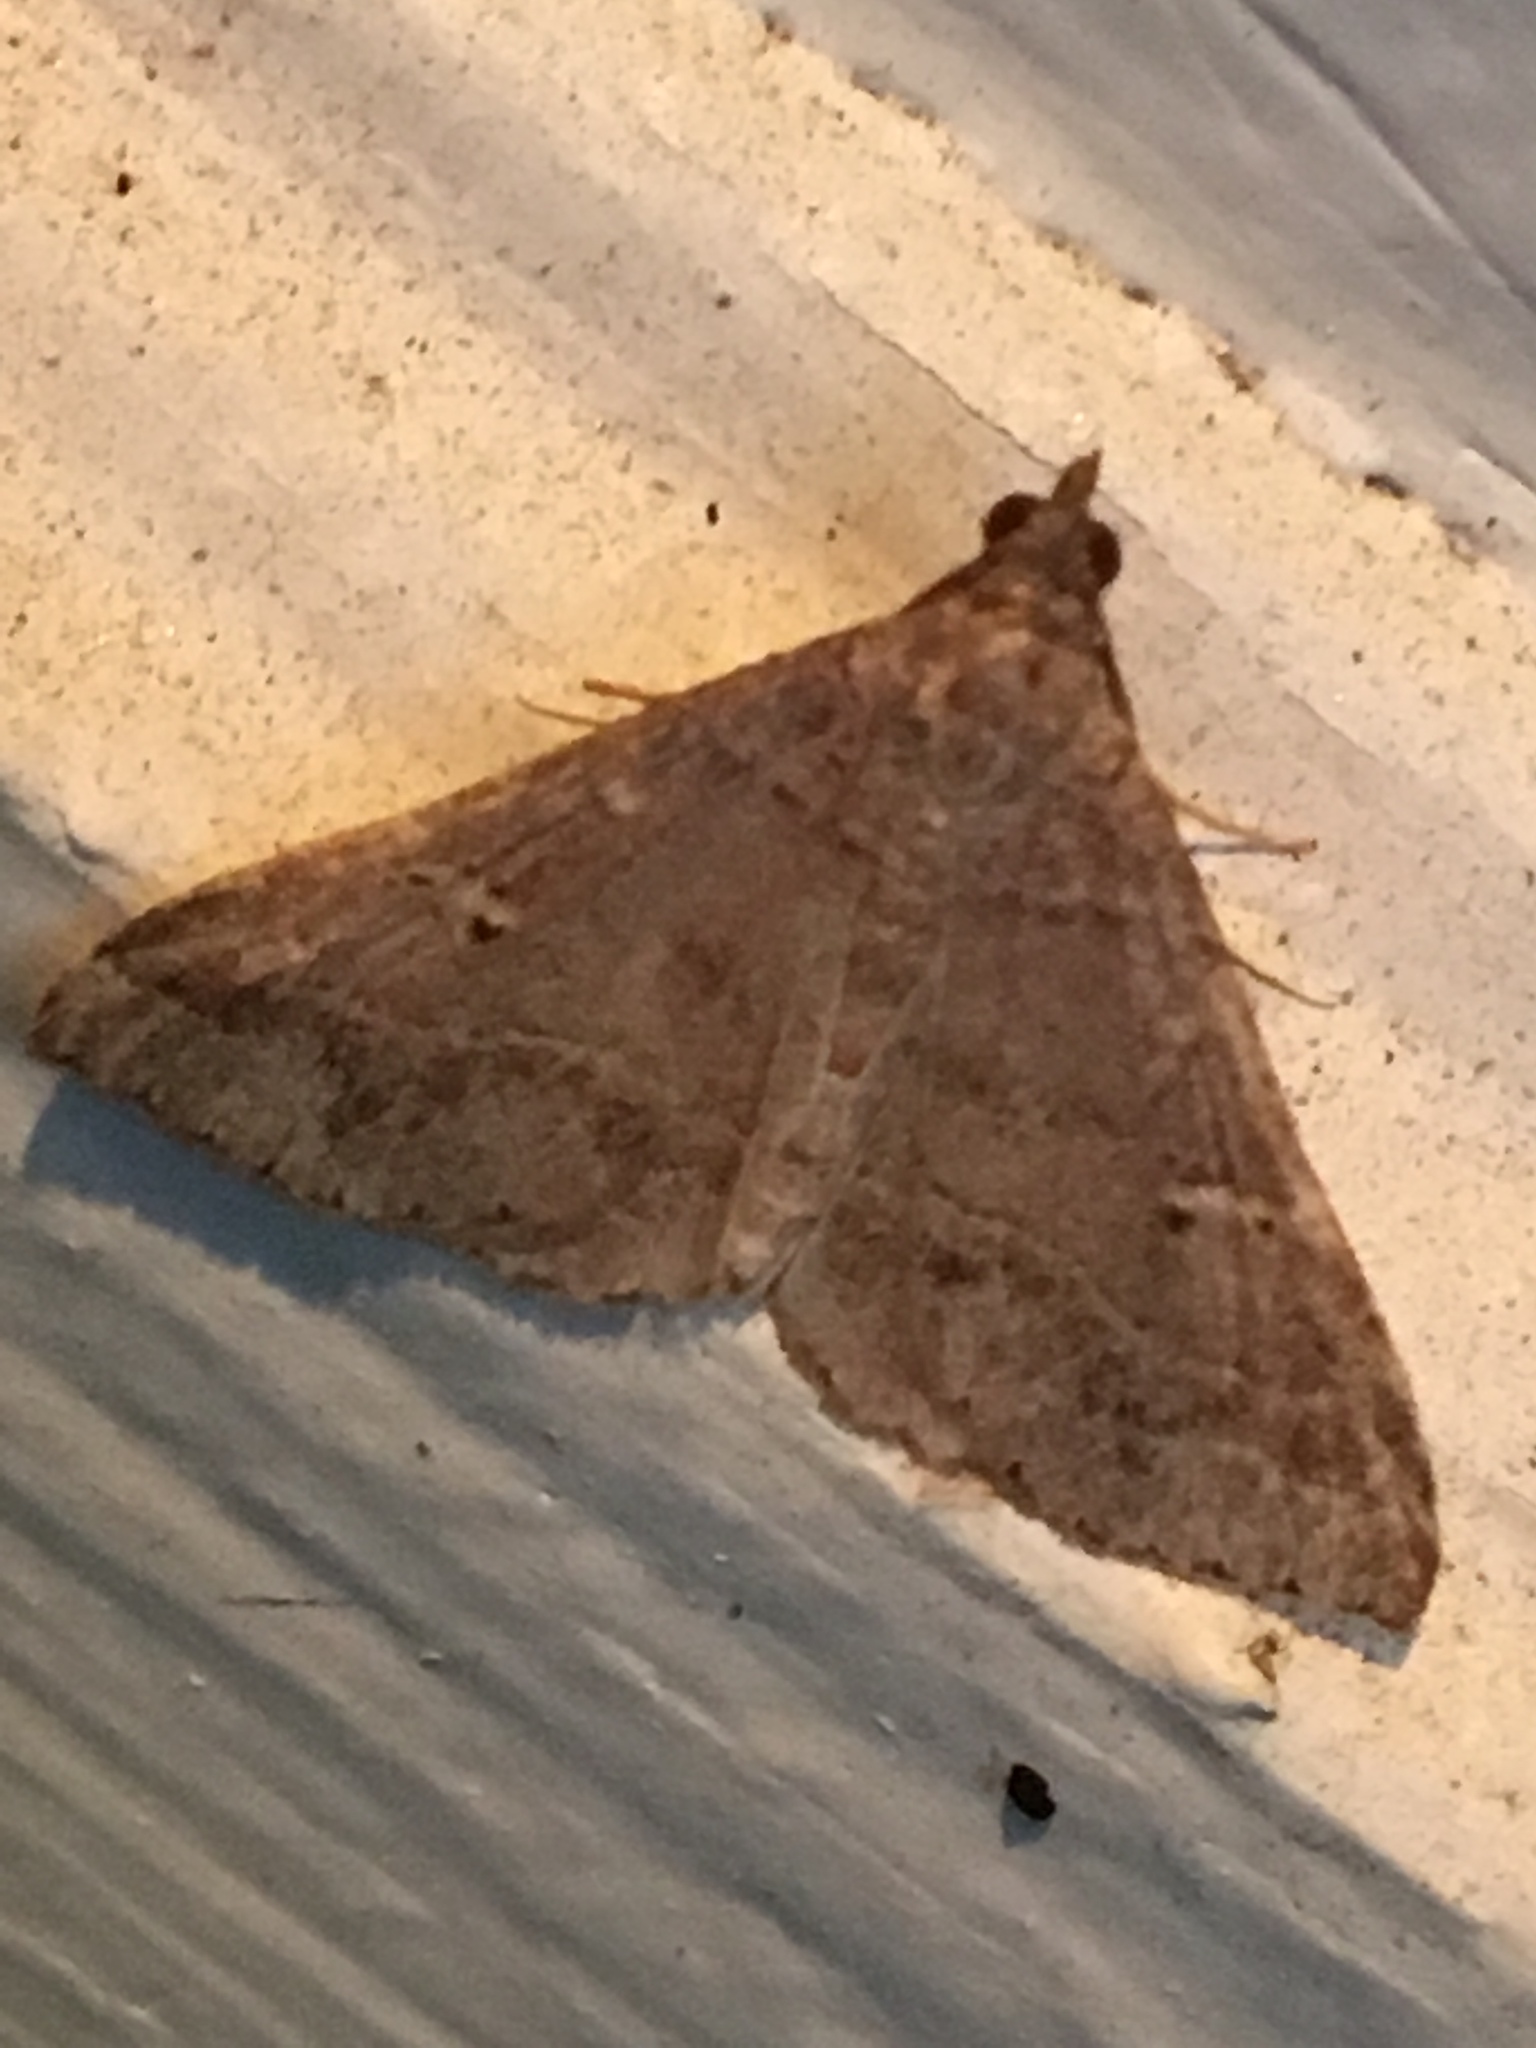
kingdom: Animalia
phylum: Arthropoda
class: Insecta
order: Lepidoptera
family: Erebidae
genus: Renia
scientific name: Renia factiosalis
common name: Sociable renia moth
